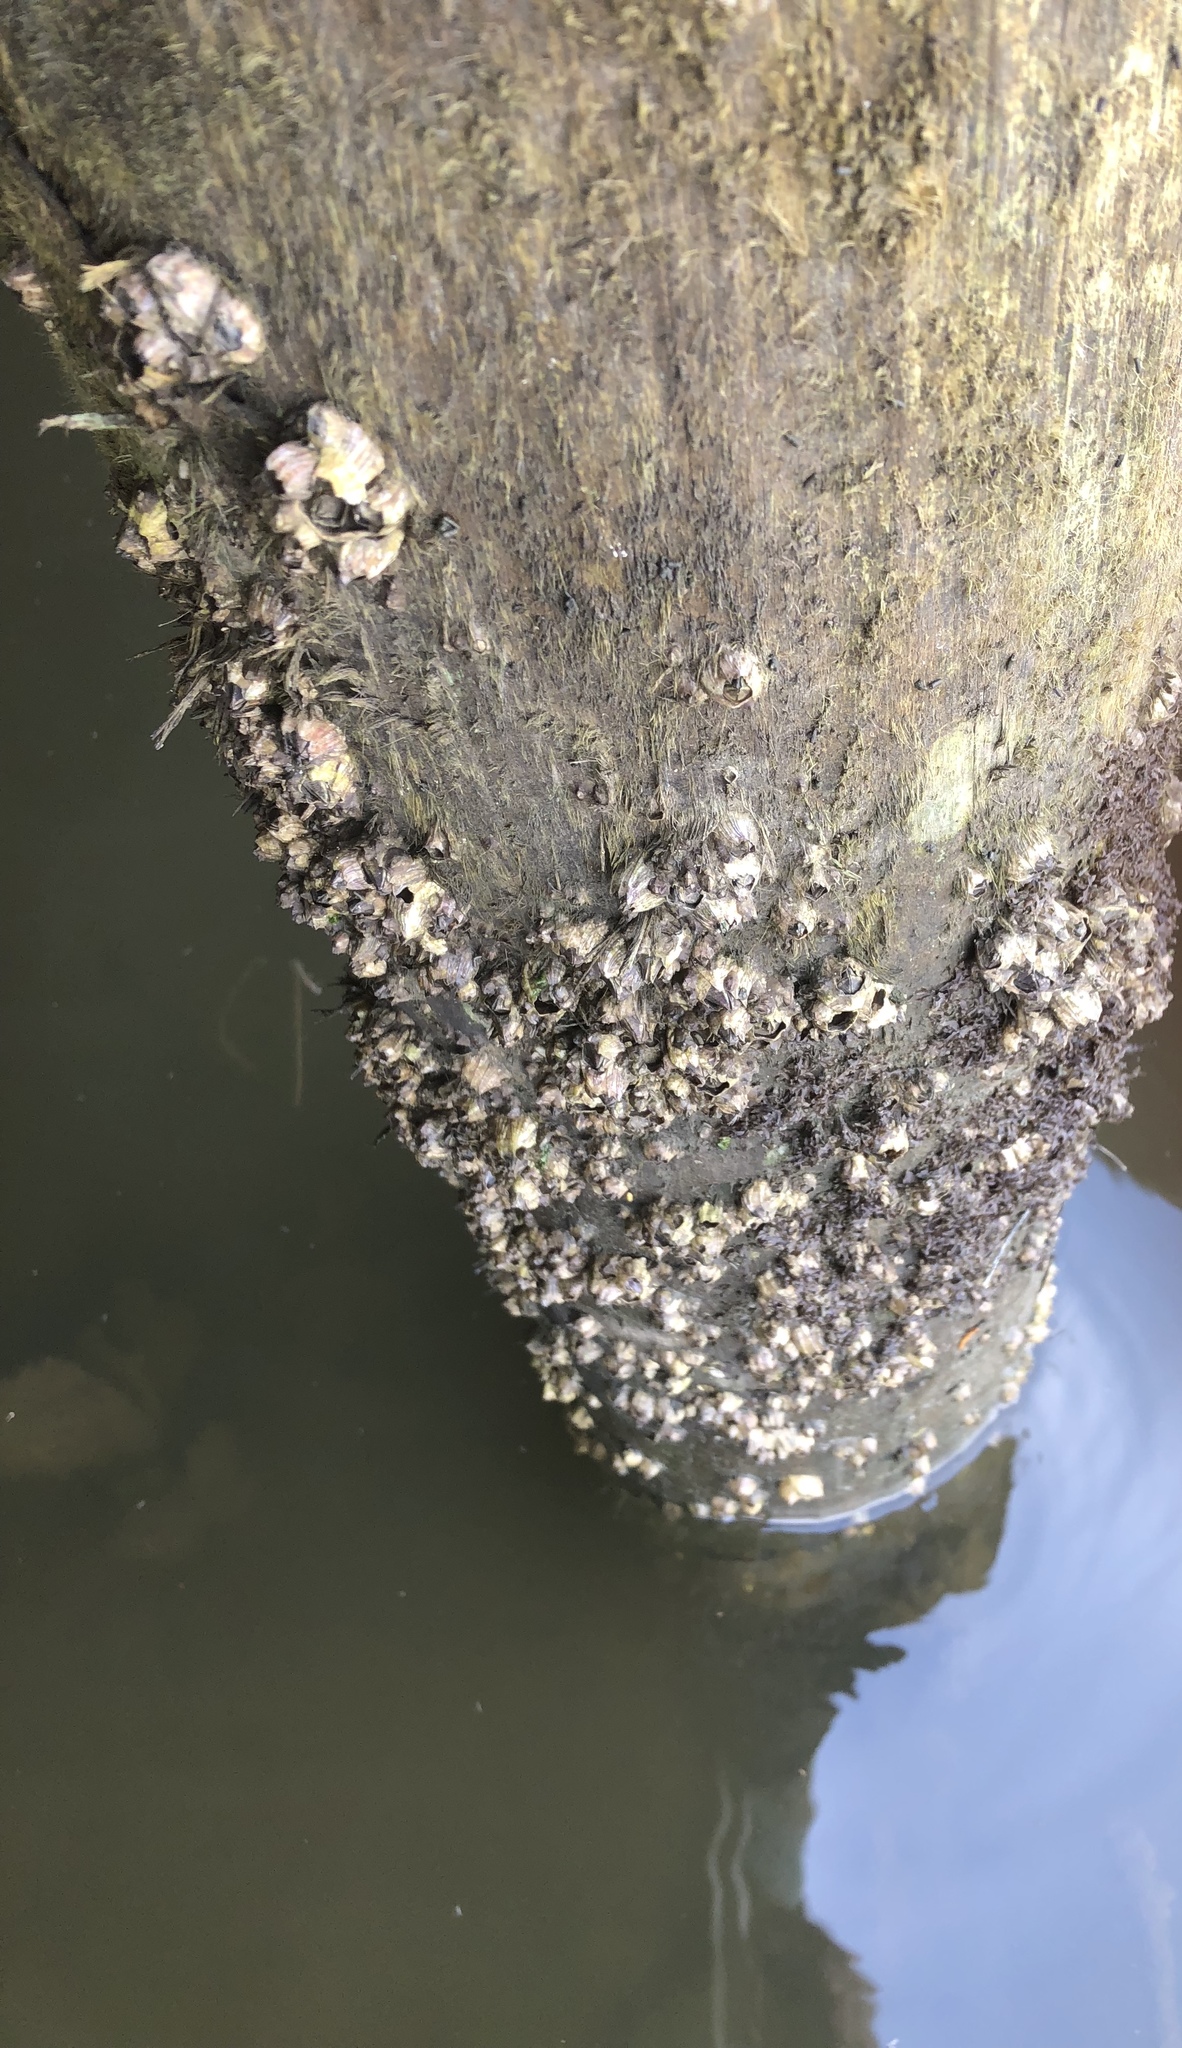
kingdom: Animalia
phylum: Arthropoda
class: Maxillopoda
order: Sessilia
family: Balanidae
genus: Amphibalanus
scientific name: Amphibalanus amphitrite
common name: Striped acorn barnacle
